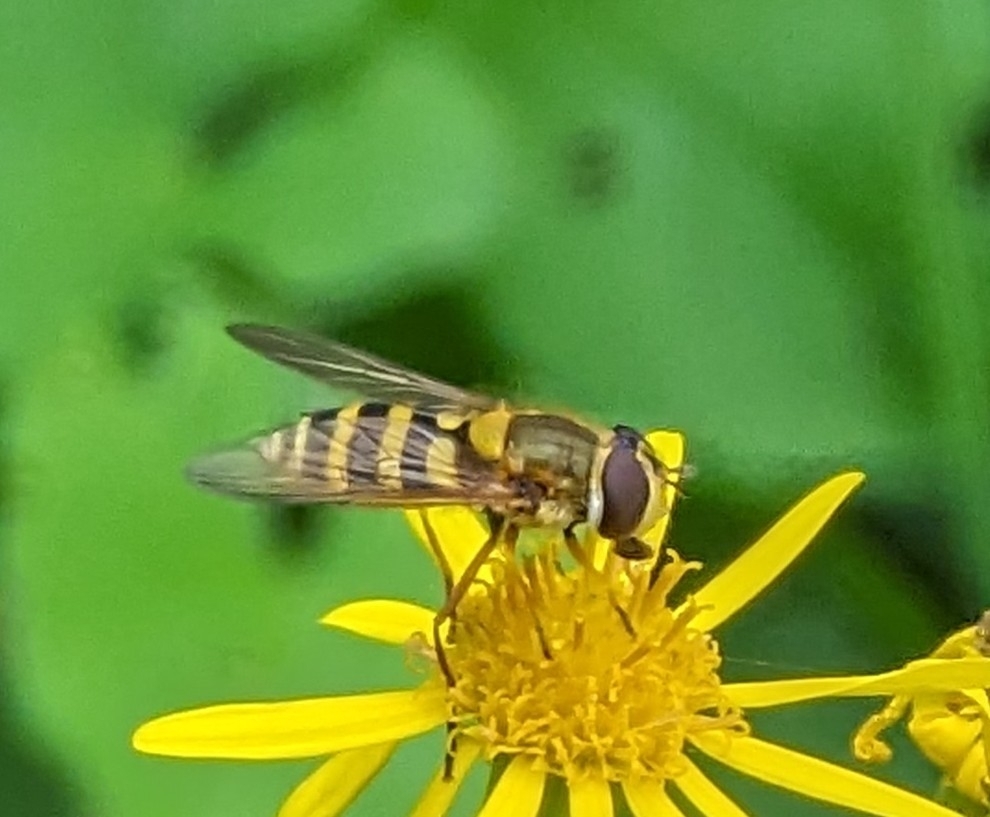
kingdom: Animalia
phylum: Arthropoda
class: Insecta
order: Diptera
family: Syrphidae
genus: Syrphus
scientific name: Syrphus ribesii
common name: Common flower fly
